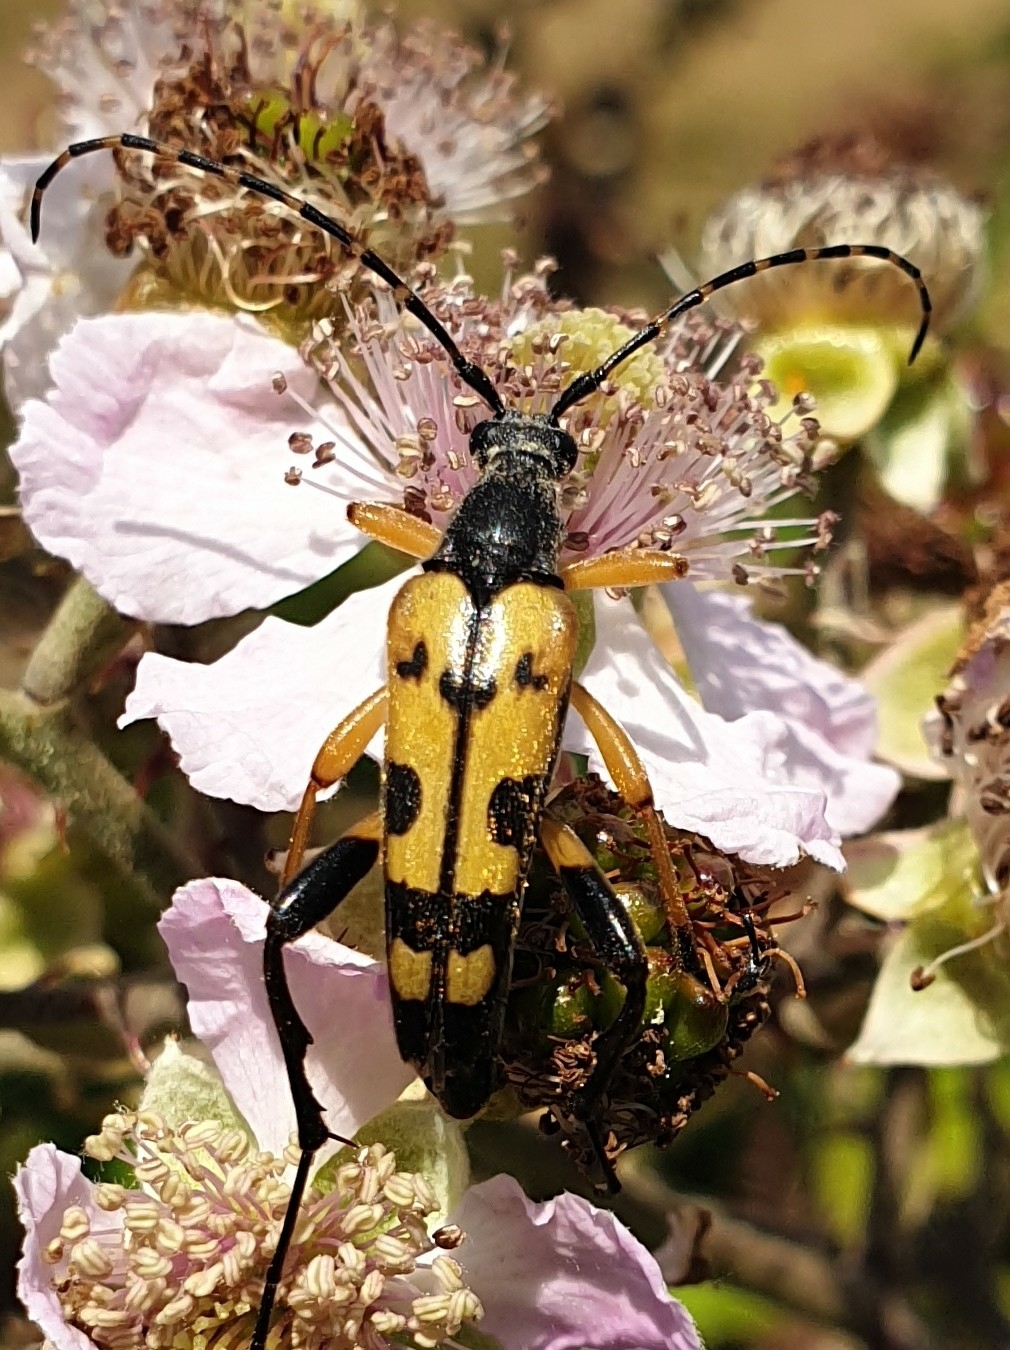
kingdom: Animalia
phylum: Arthropoda
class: Insecta
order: Coleoptera
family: Cerambycidae
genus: Rutpela
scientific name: Rutpela maculata
